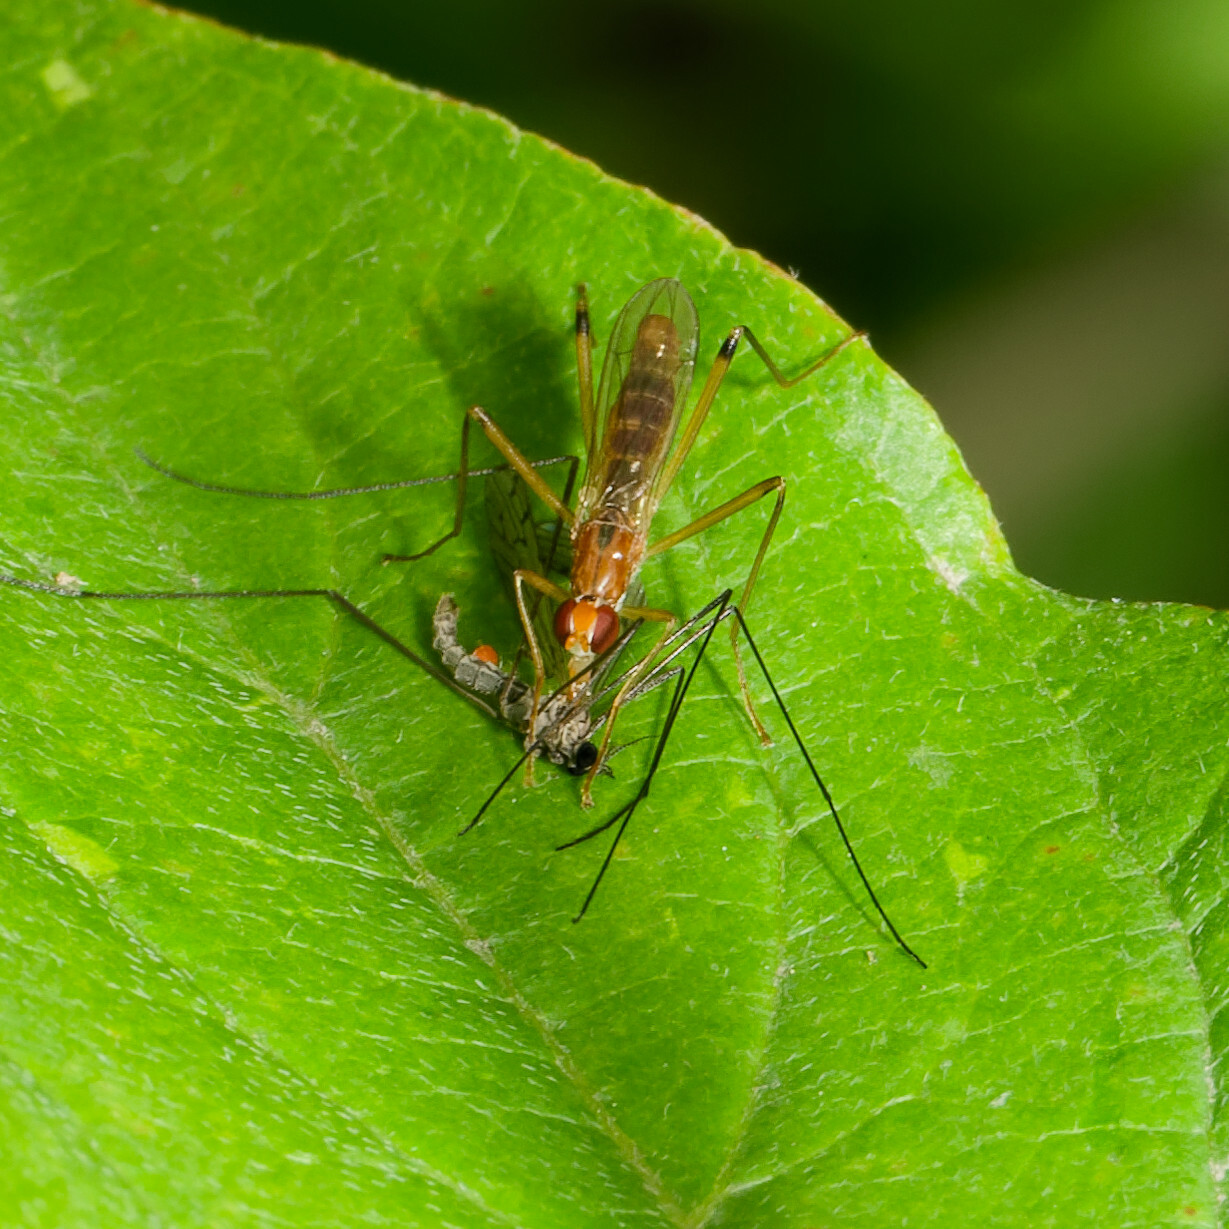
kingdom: Animalia
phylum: Arthropoda
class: Insecta
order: Diptera
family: Micropezidae
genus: Compsobata
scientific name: Compsobata univitta
